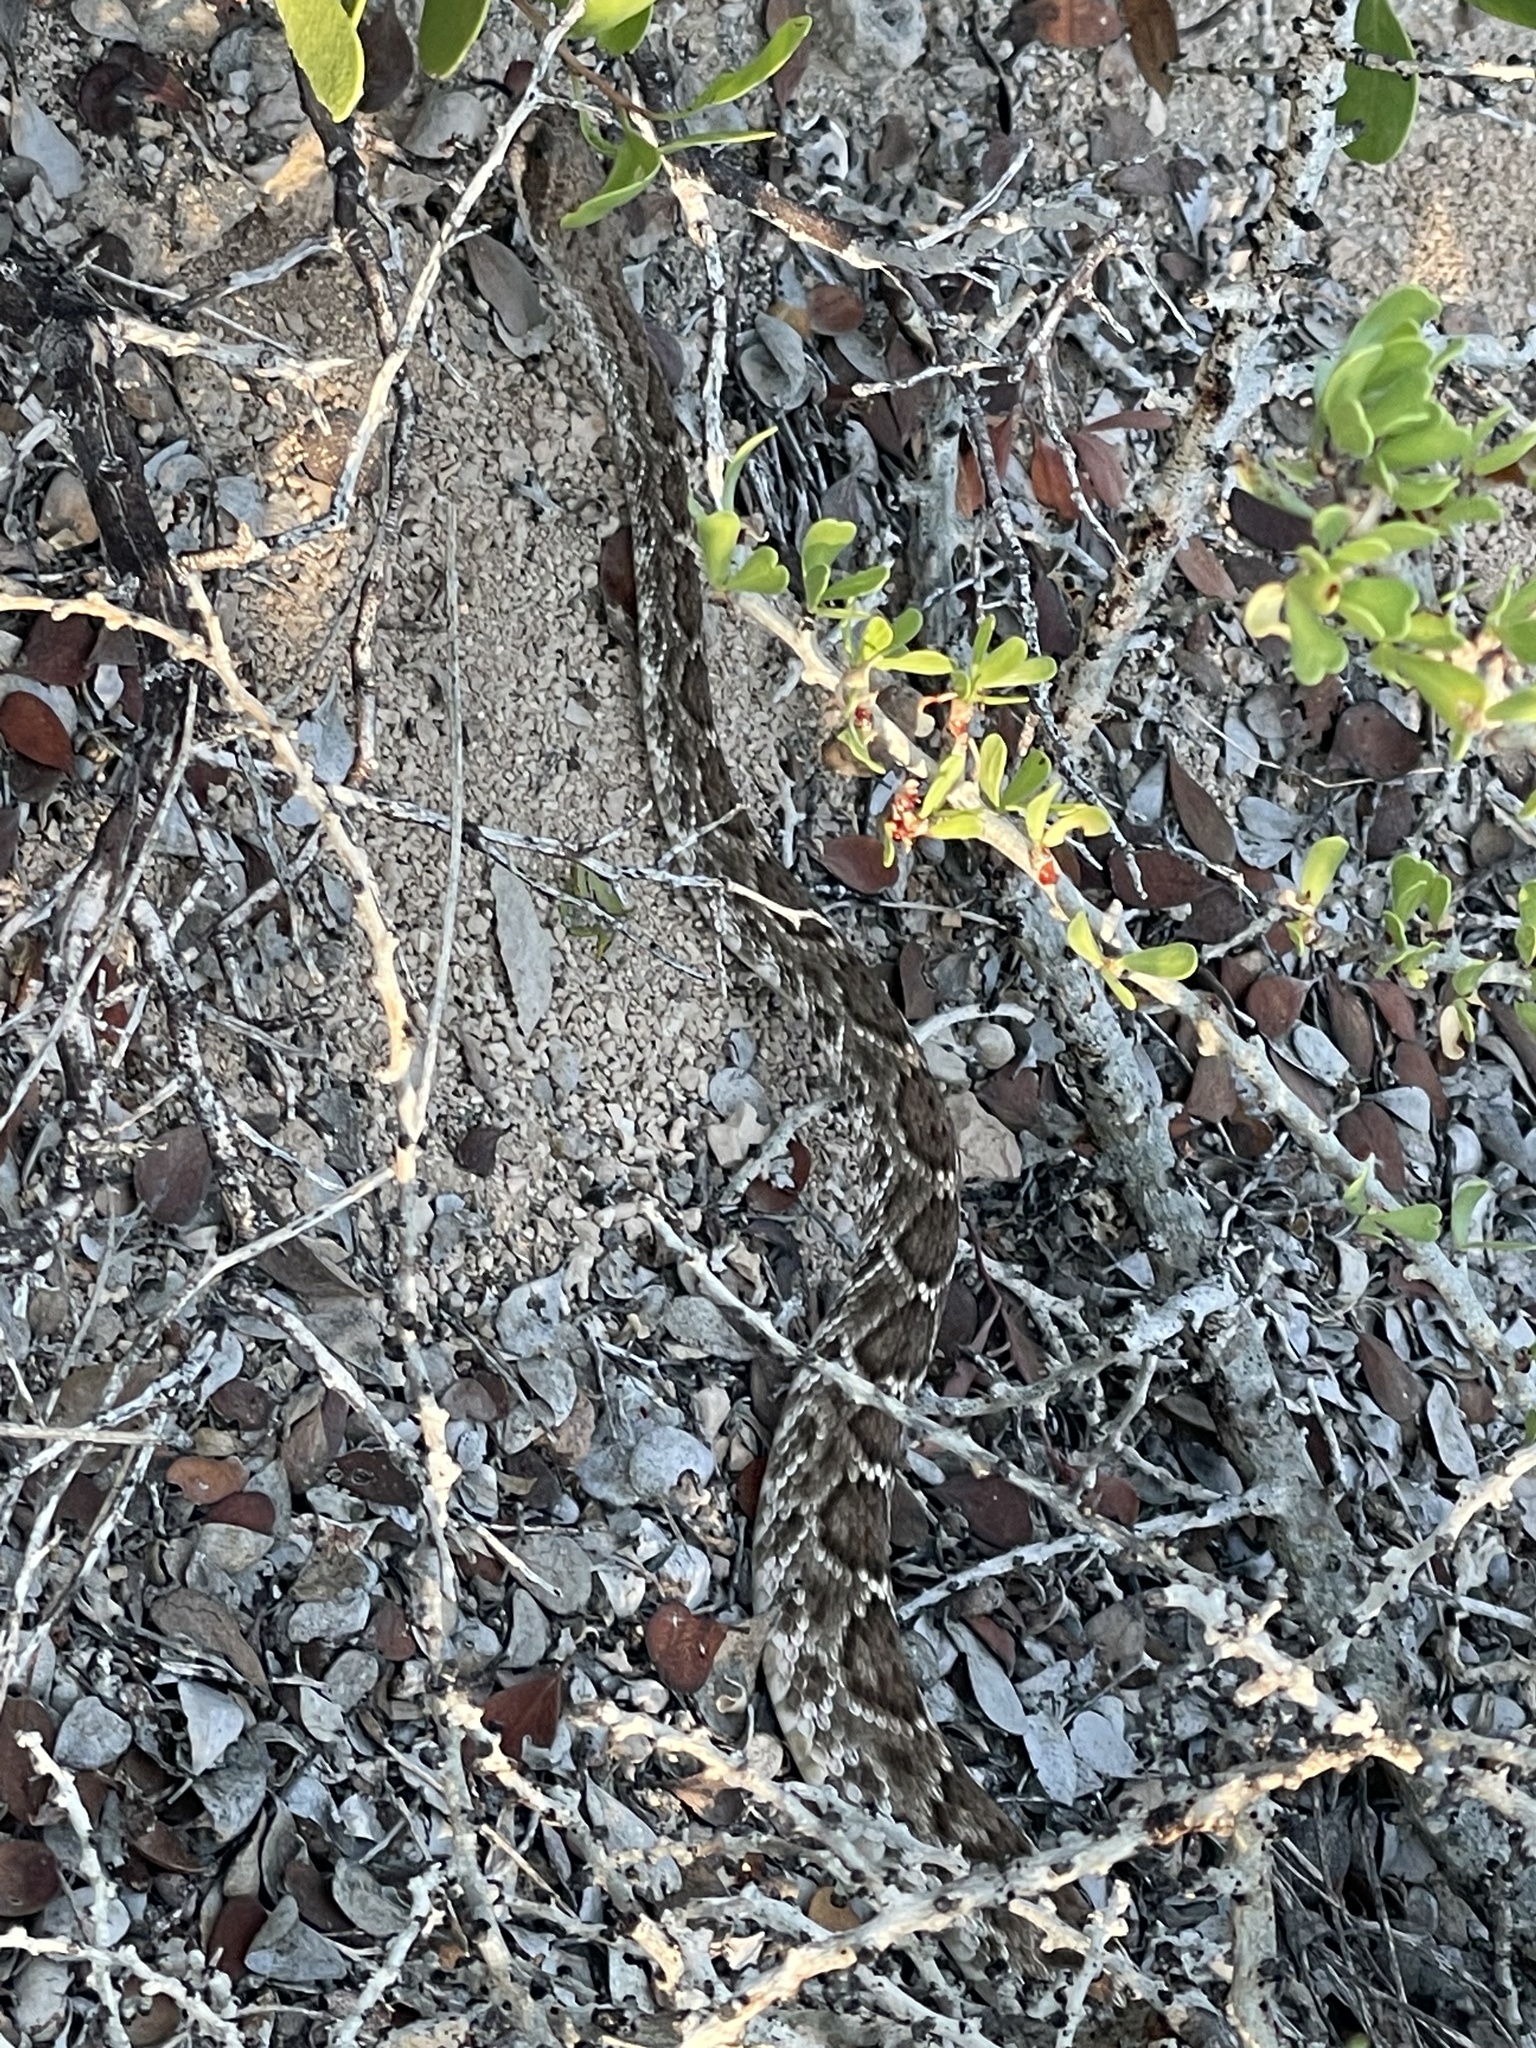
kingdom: Animalia
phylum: Chordata
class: Squamata
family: Viperidae
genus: Crotalus
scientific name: Crotalus ruber
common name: Red diamond rattlesnake
